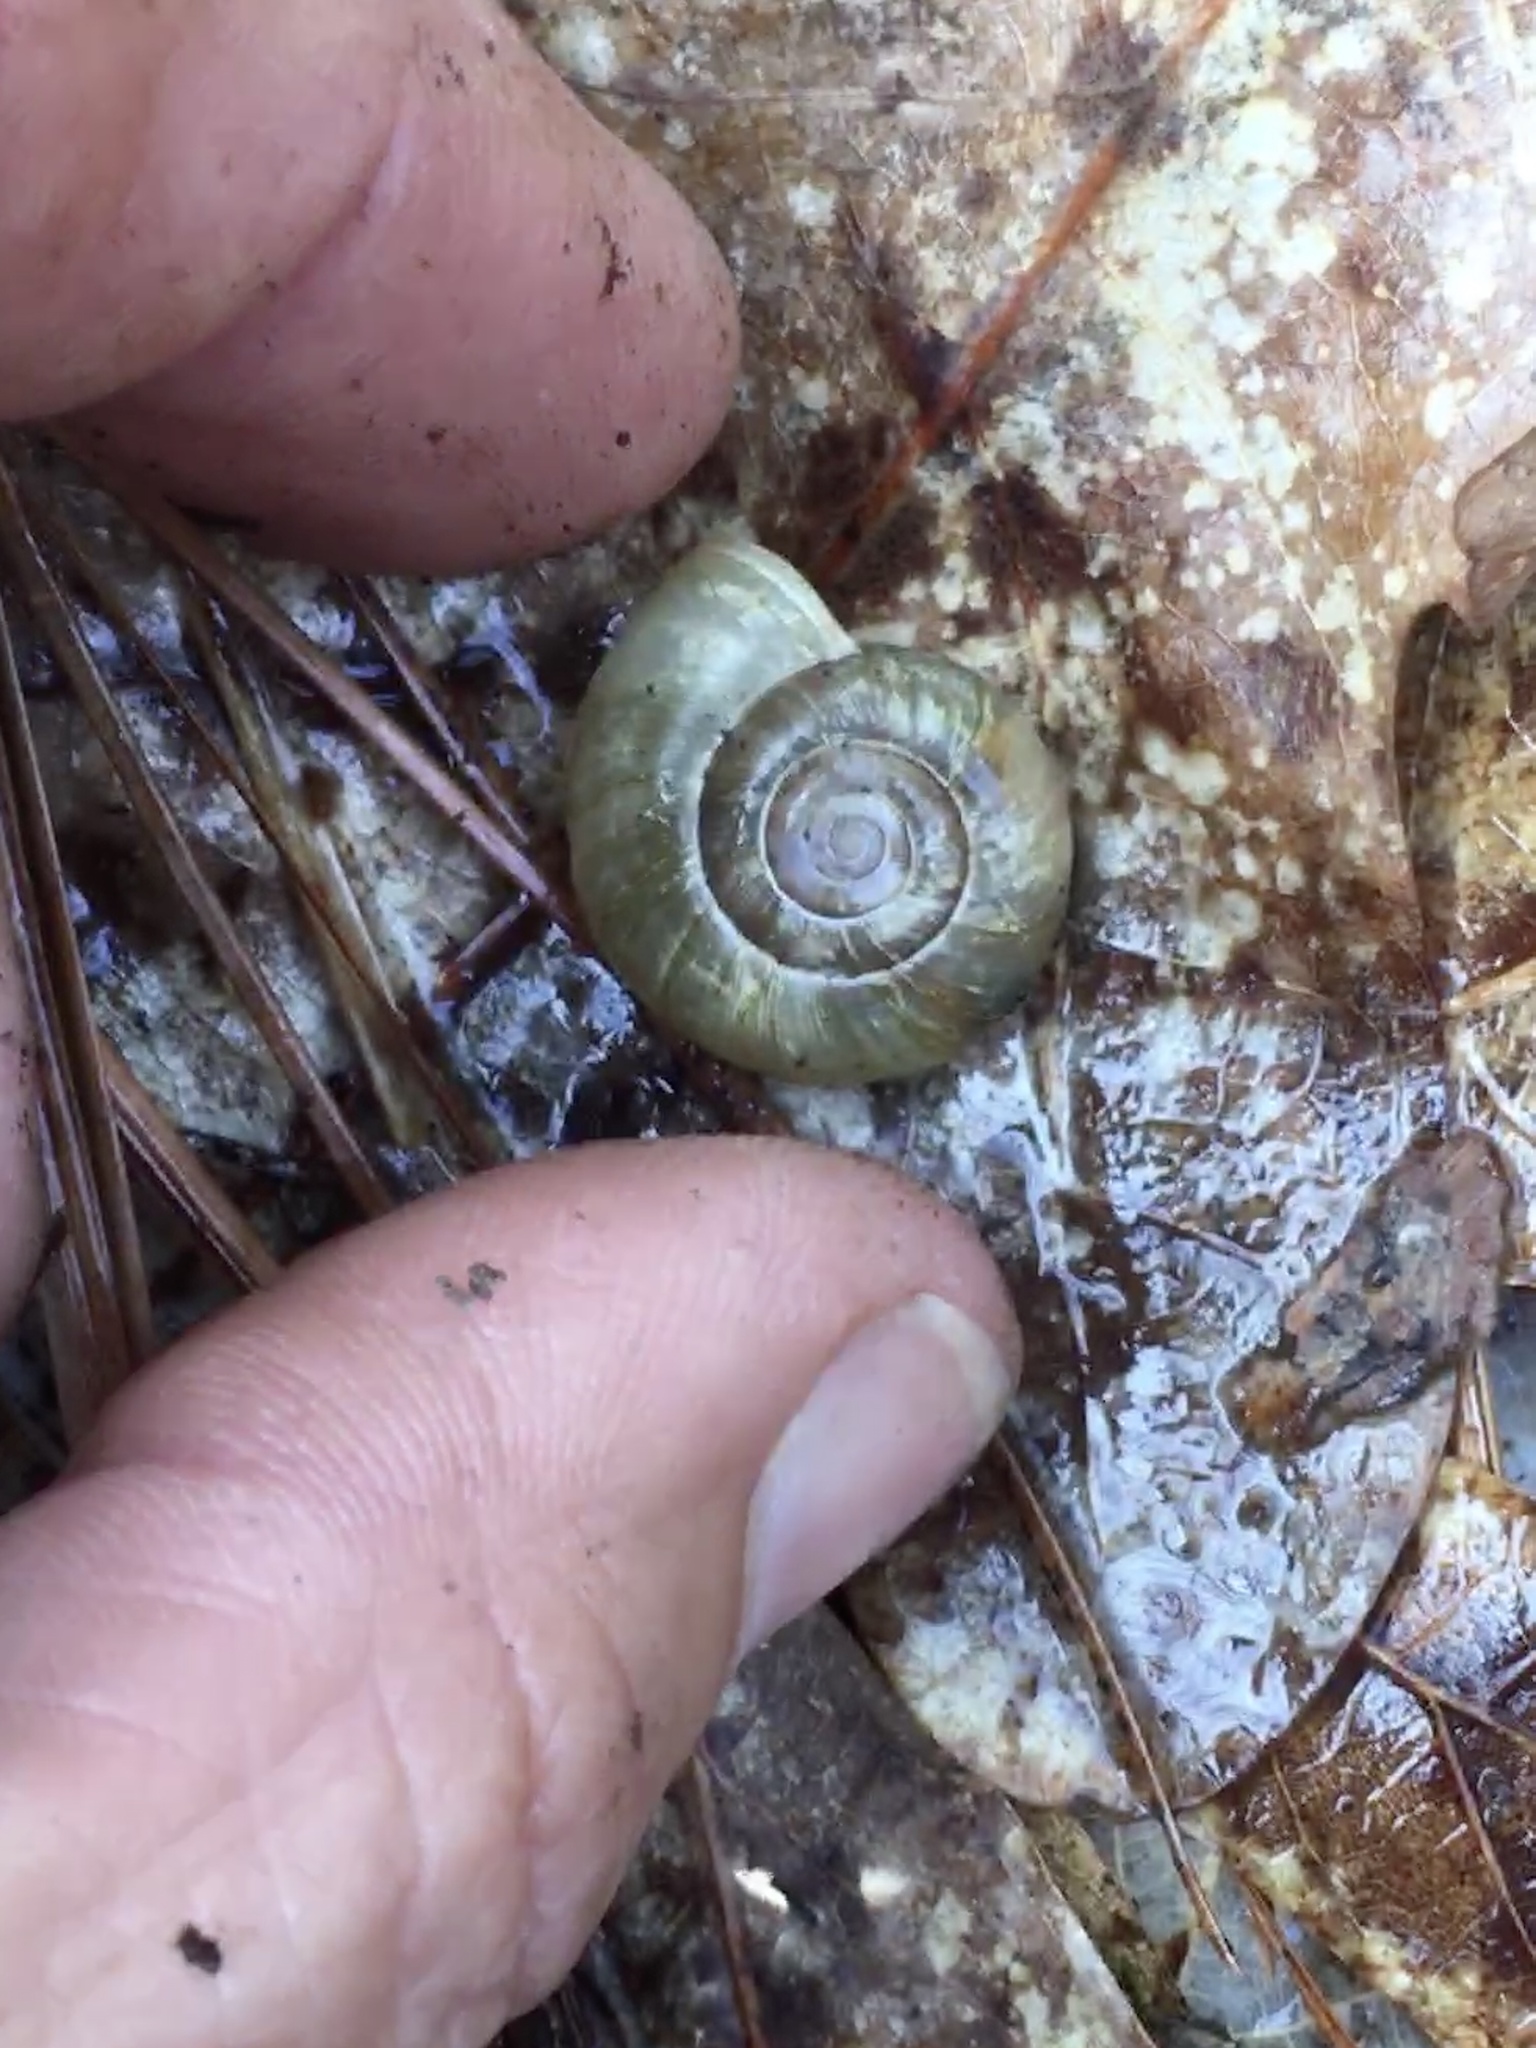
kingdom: Animalia
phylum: Mollusca
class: Gastropoda
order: Stylommatophora
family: Haplotrematidae
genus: Haplotrema
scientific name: Haplotrema concavum
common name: Gray-foot lancetooth
